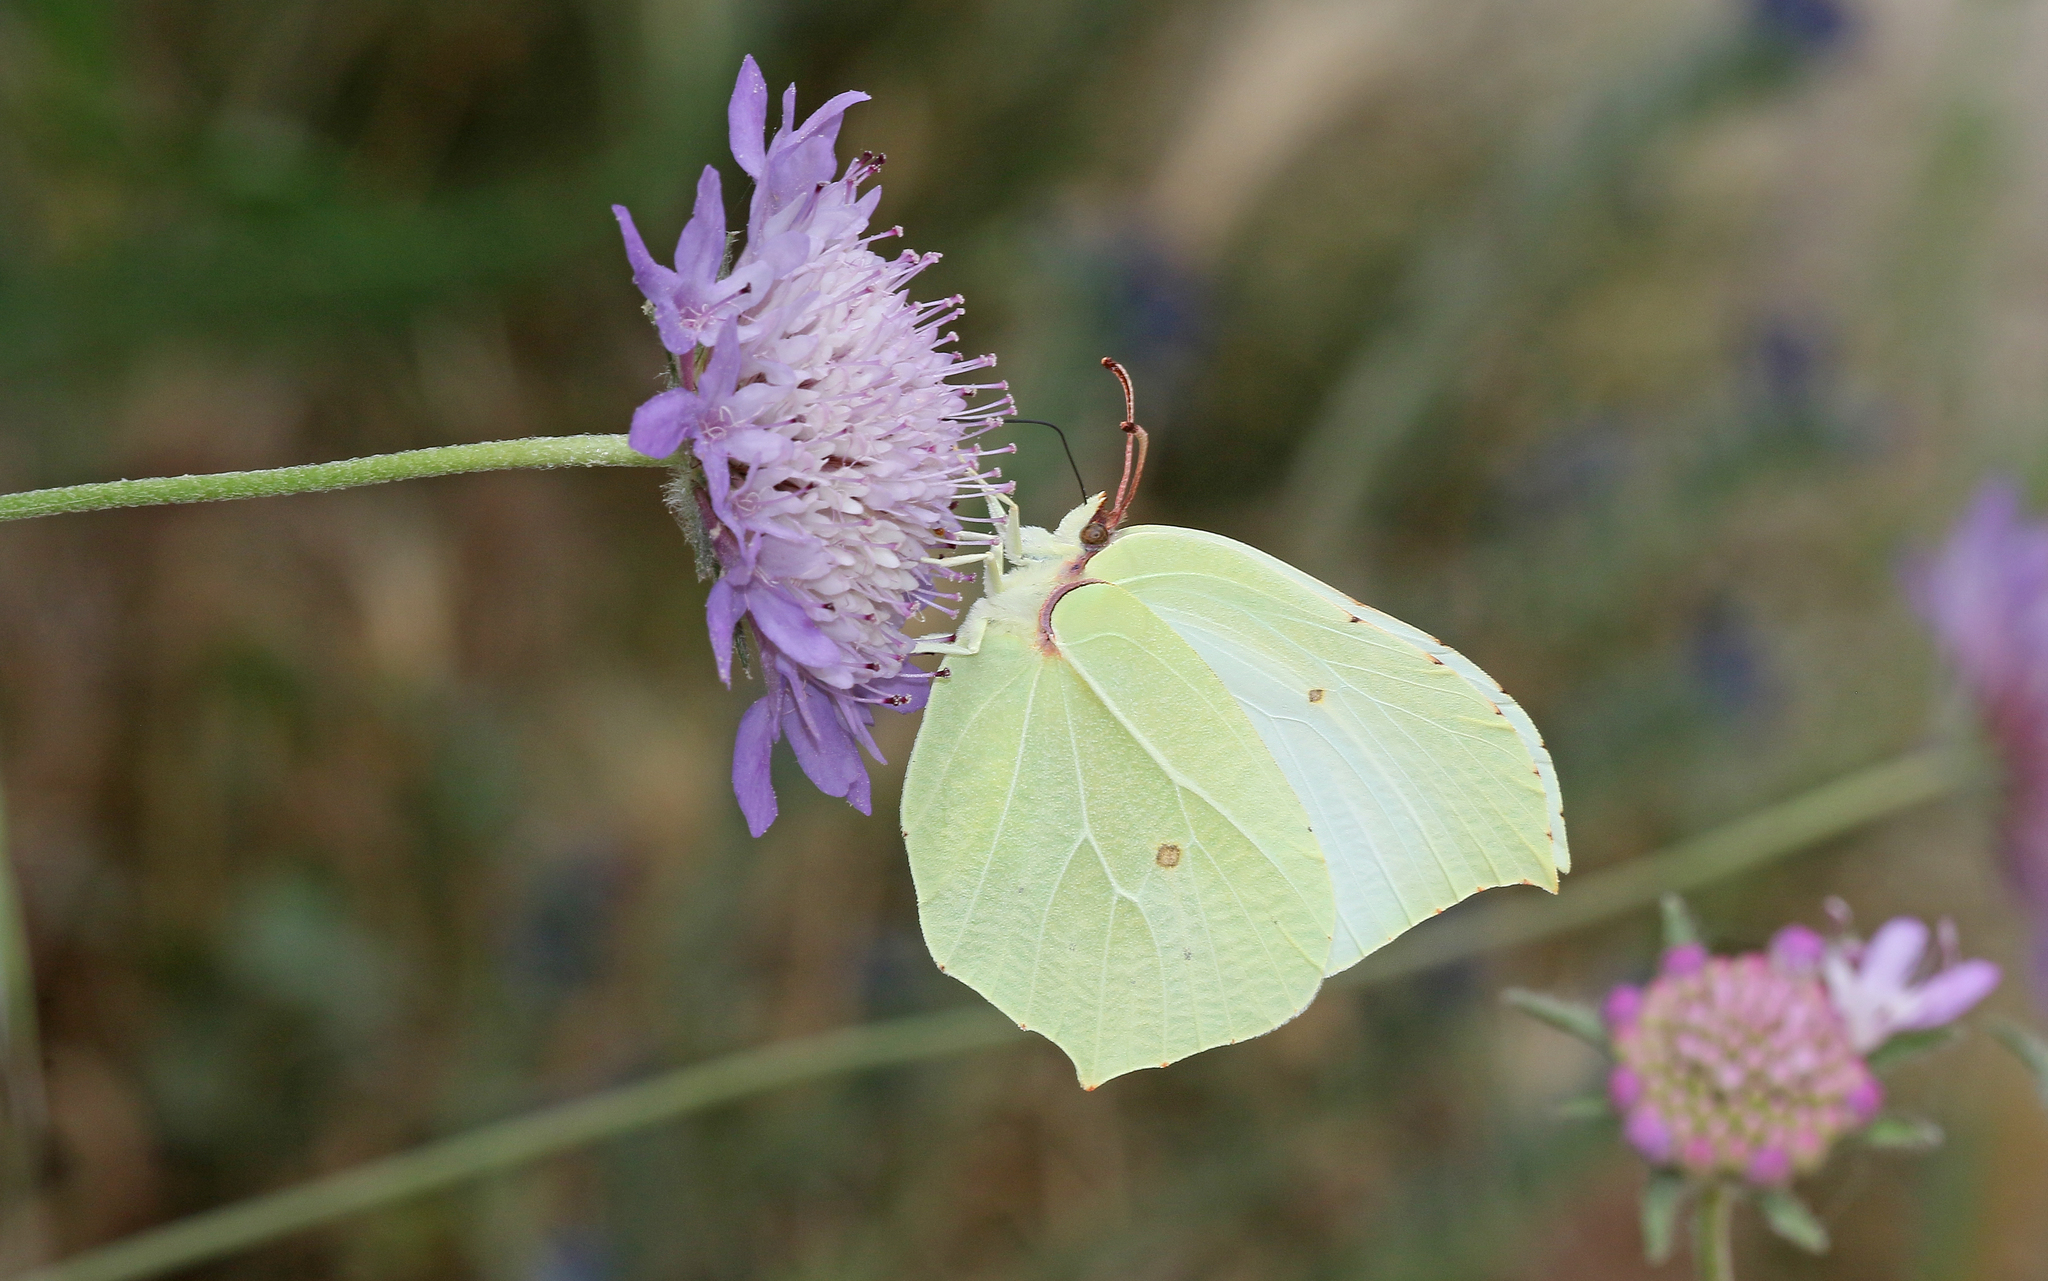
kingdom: Animalia
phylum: Arthropoda
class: Insecta
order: Lepidoptera
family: Pieridae
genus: Gonepteryx
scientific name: Gonepteryx rhamni
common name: Brimstone
